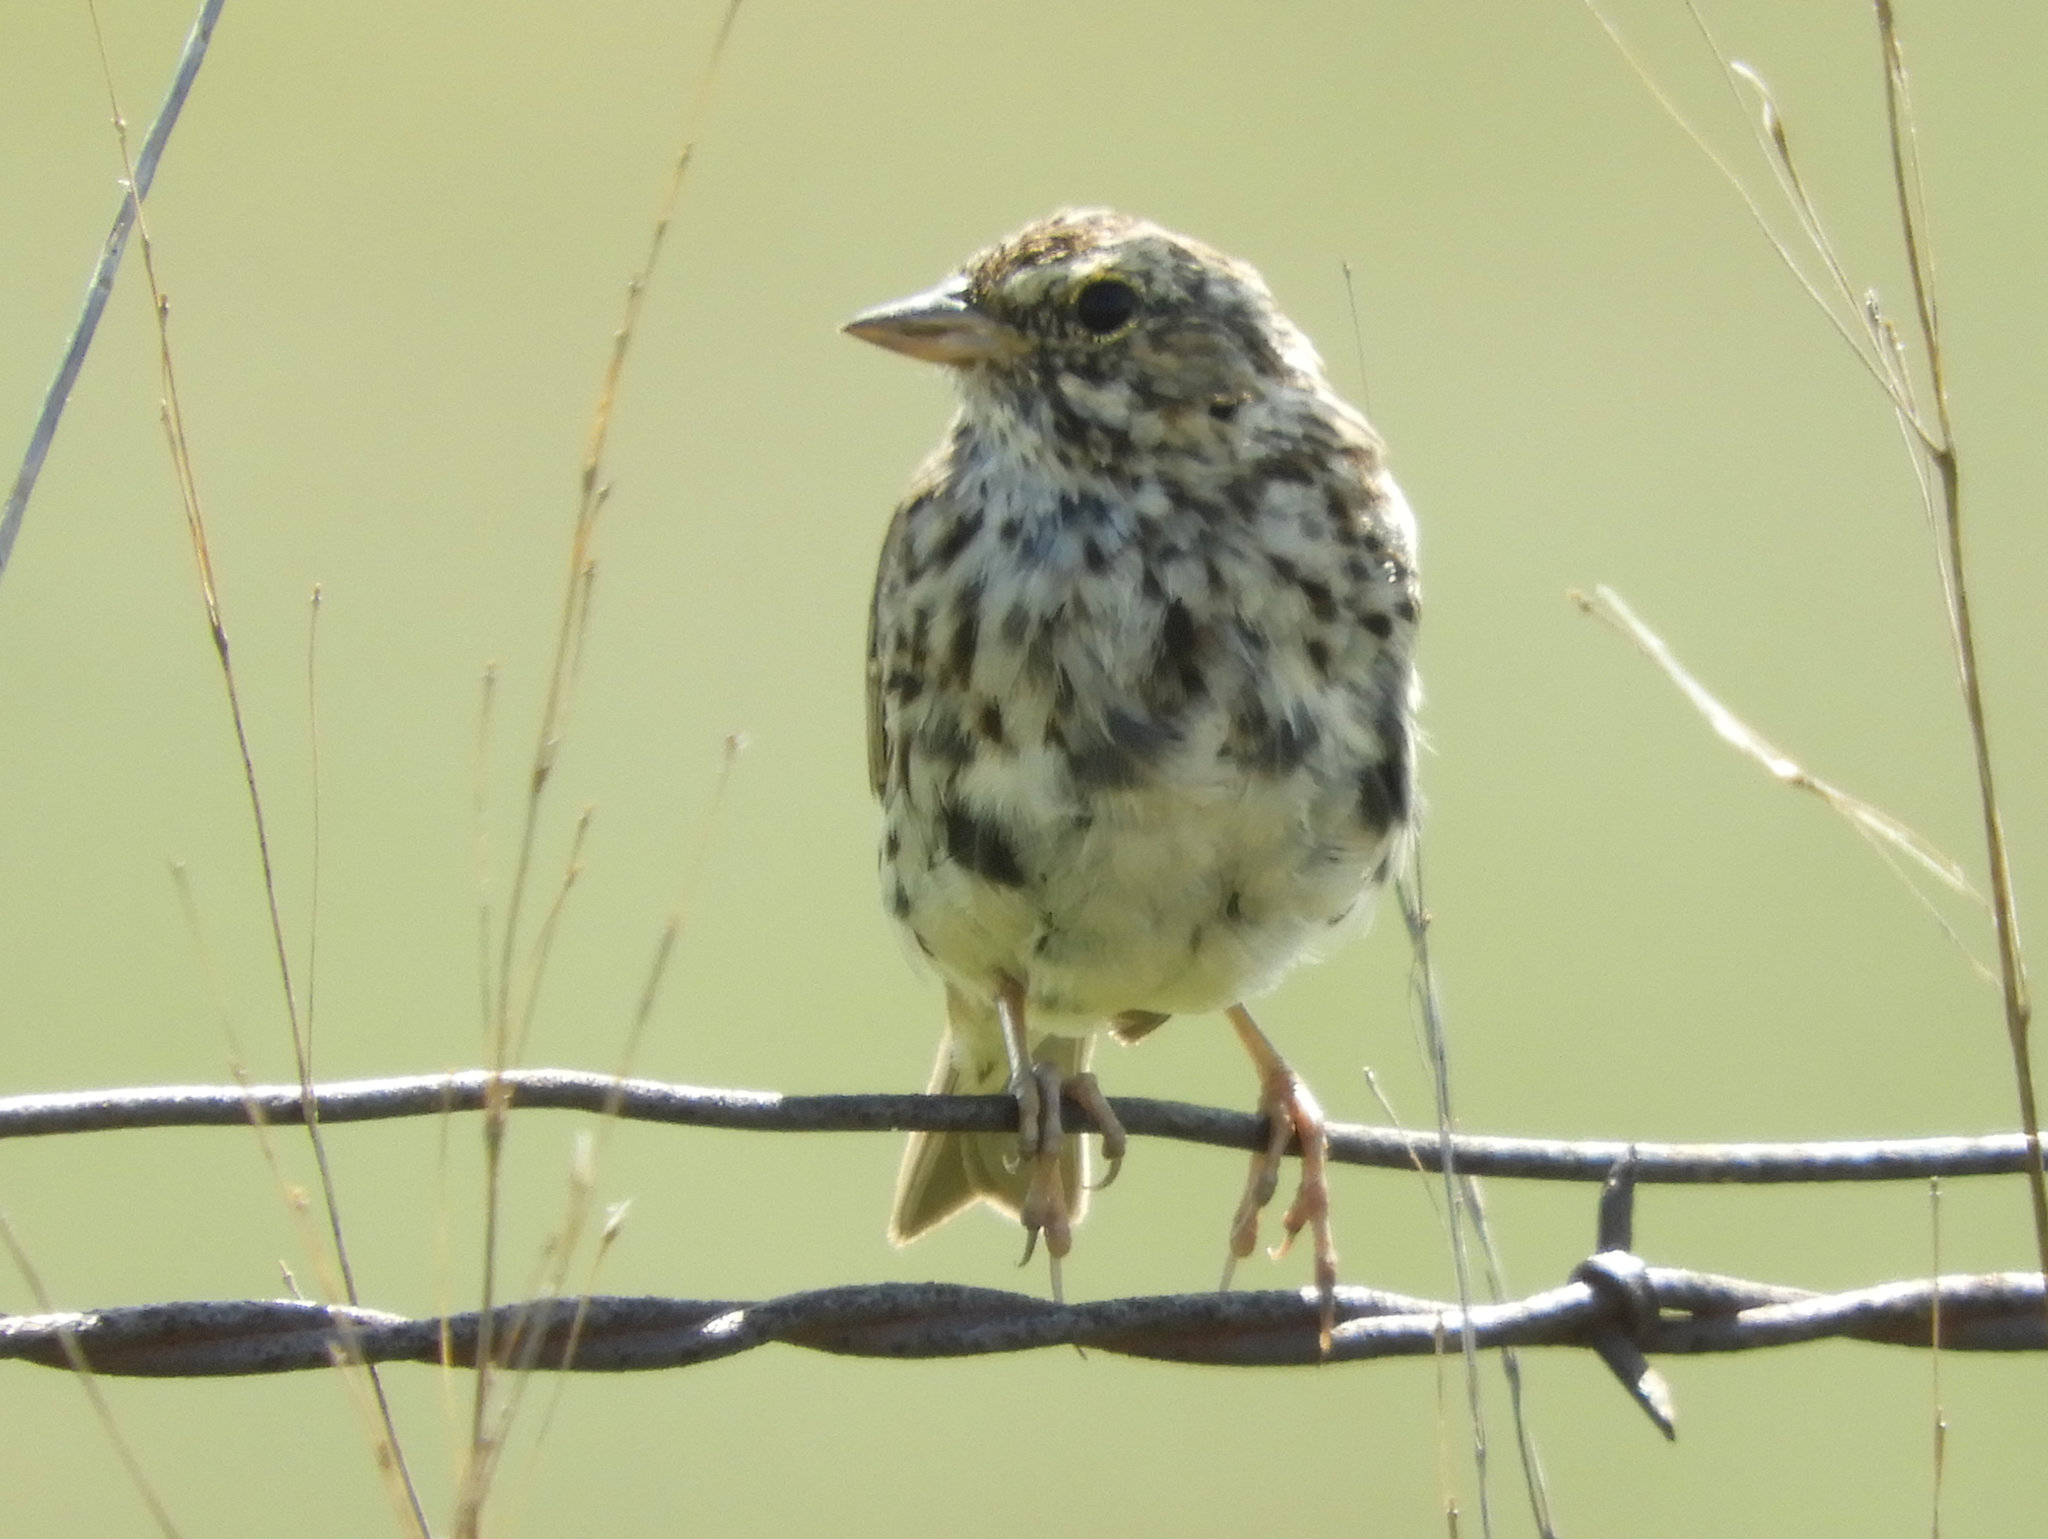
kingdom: Animalia
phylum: Chordata
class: Aves
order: Passeriformes
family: Passerellidae
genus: Passerculus
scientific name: Passerculus sandwichensis
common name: Savannah sparrow
